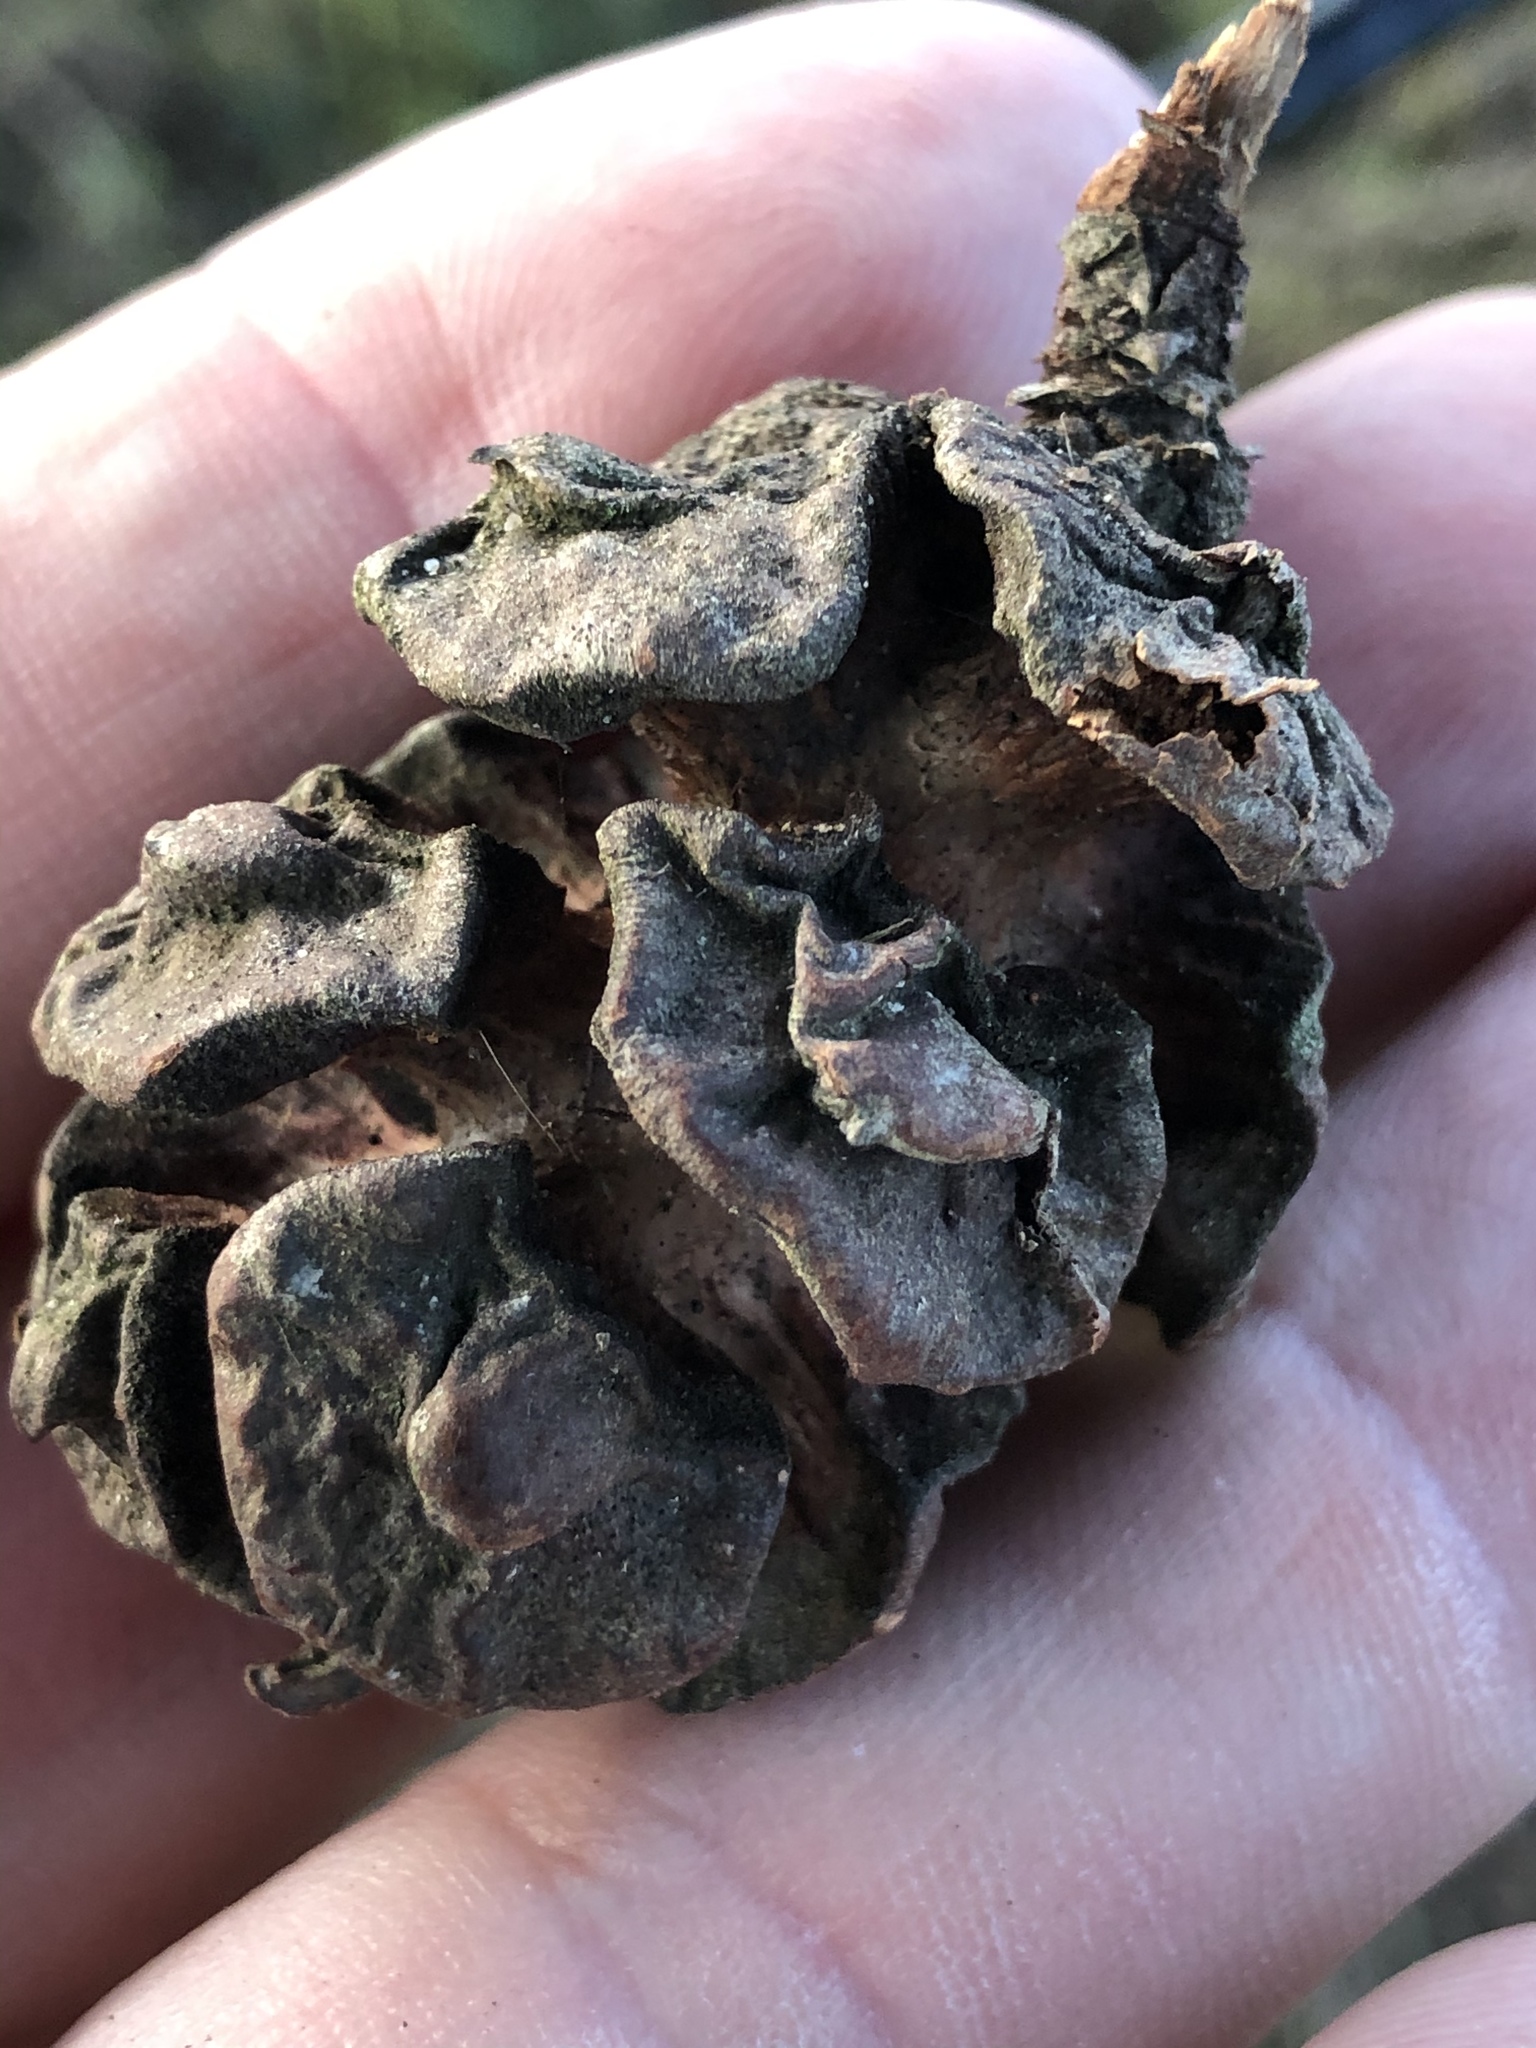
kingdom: Plantae
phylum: Tracheophyta
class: Pinopsida
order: Pinales
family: Cupressaceae
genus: Cupressus
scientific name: Cupressus macrocarpa
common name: Monterey cypress
